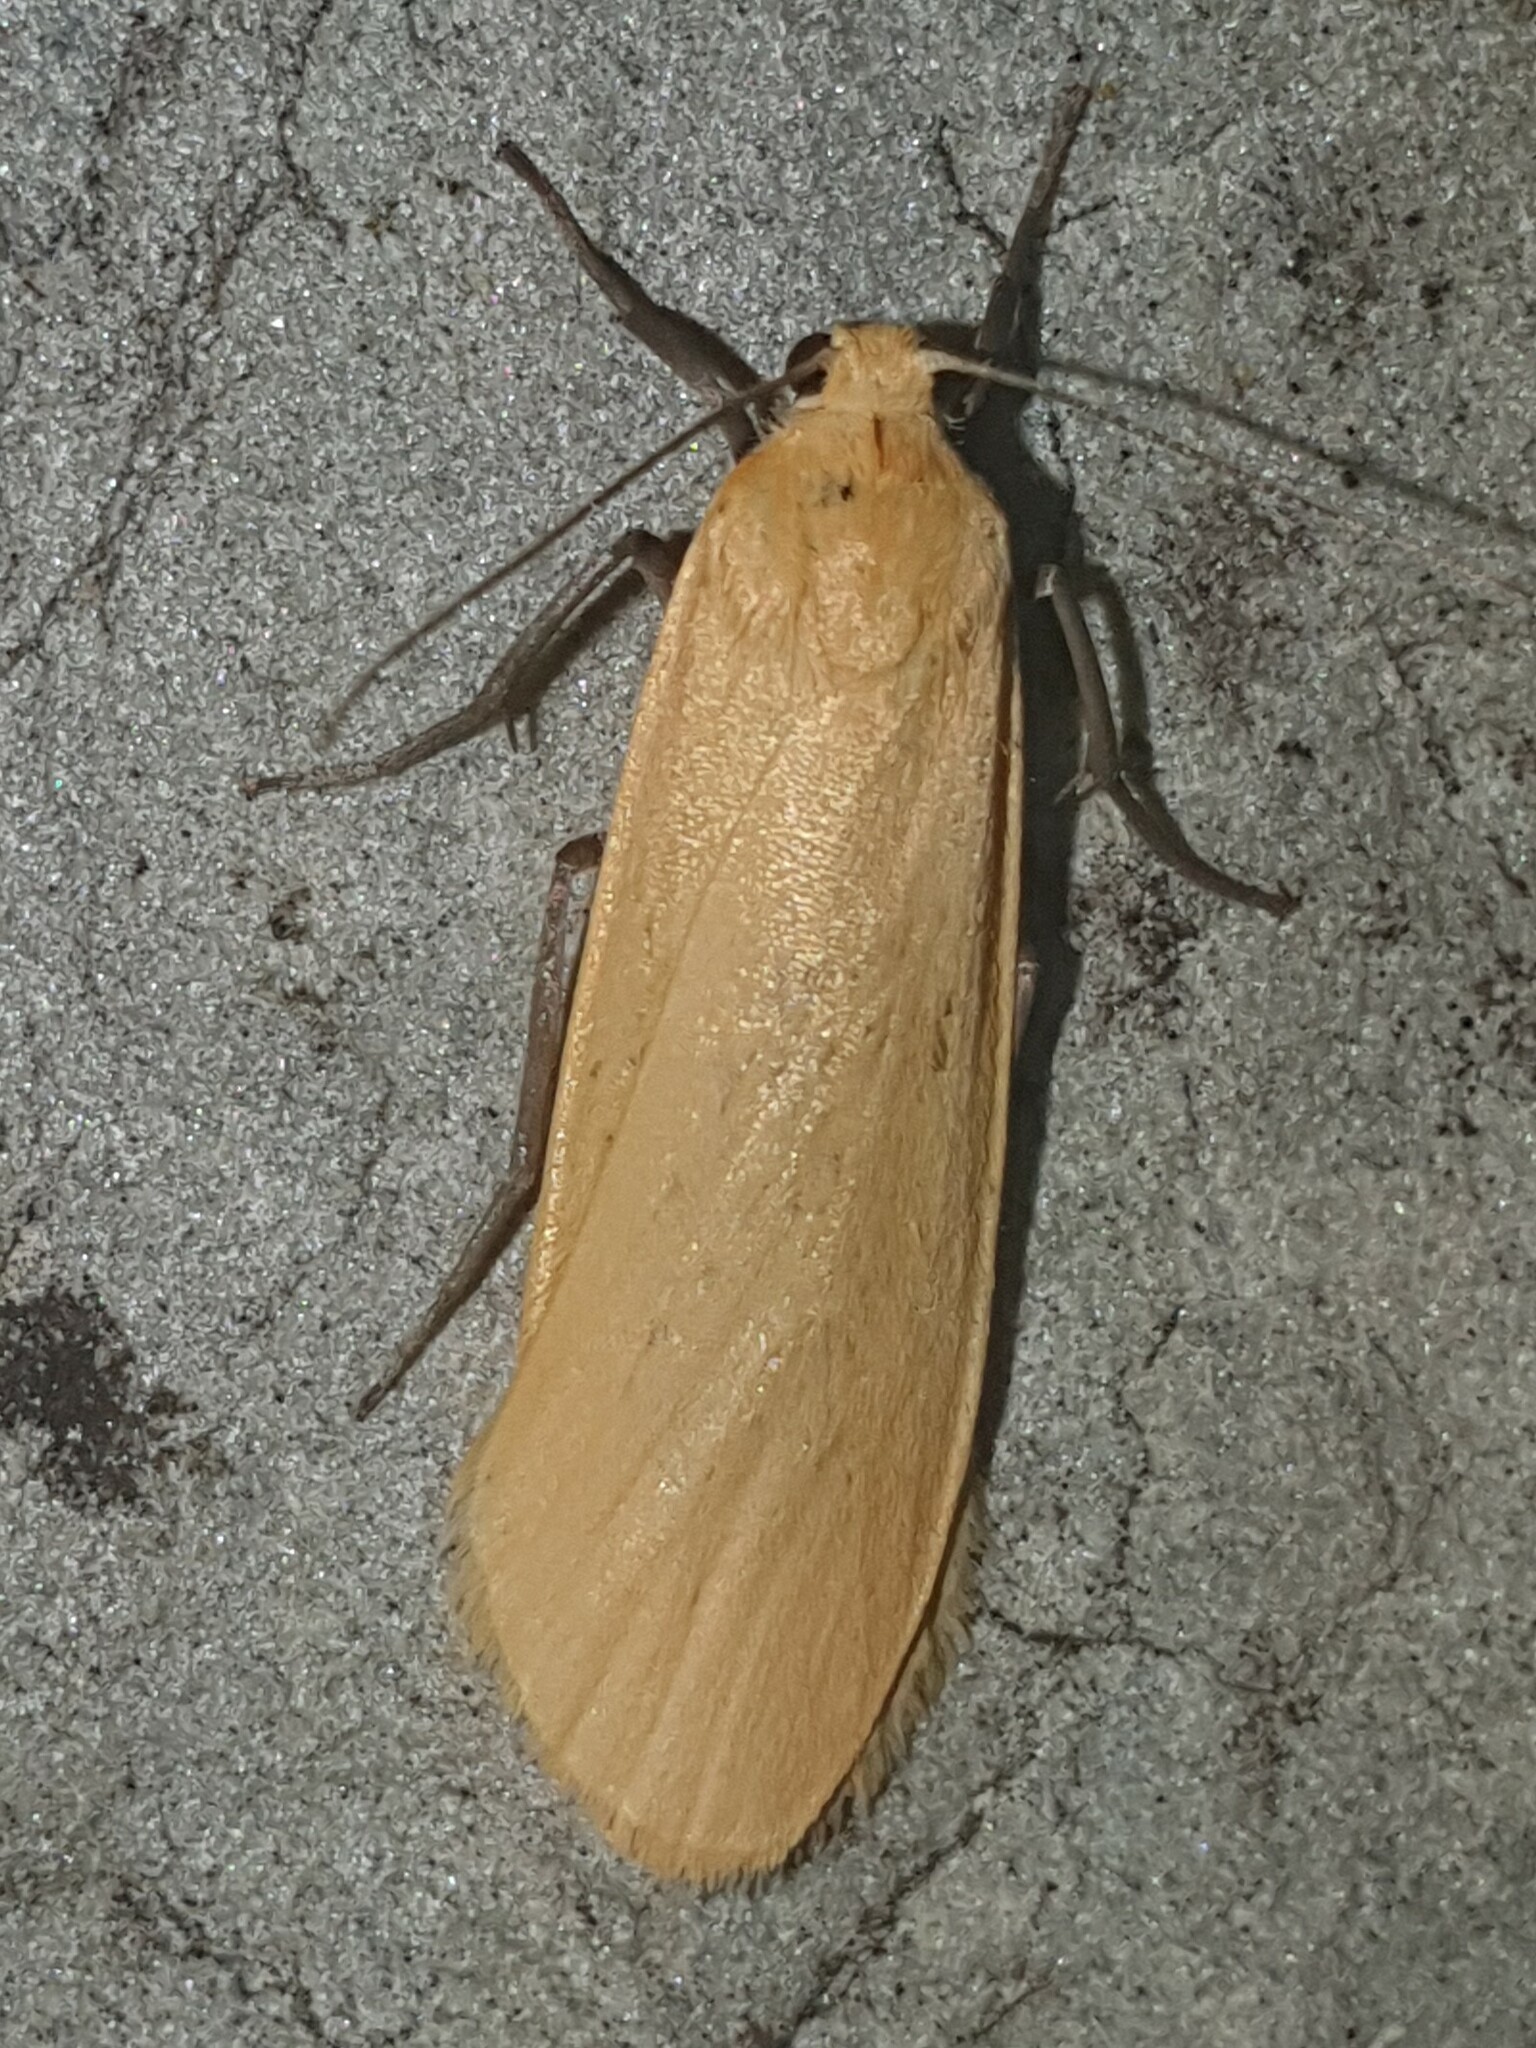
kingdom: Animalia
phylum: Arthropoda
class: Insecta
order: Lepidoptera
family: Erebidae
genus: Wittia
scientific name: Wittia sororcula
